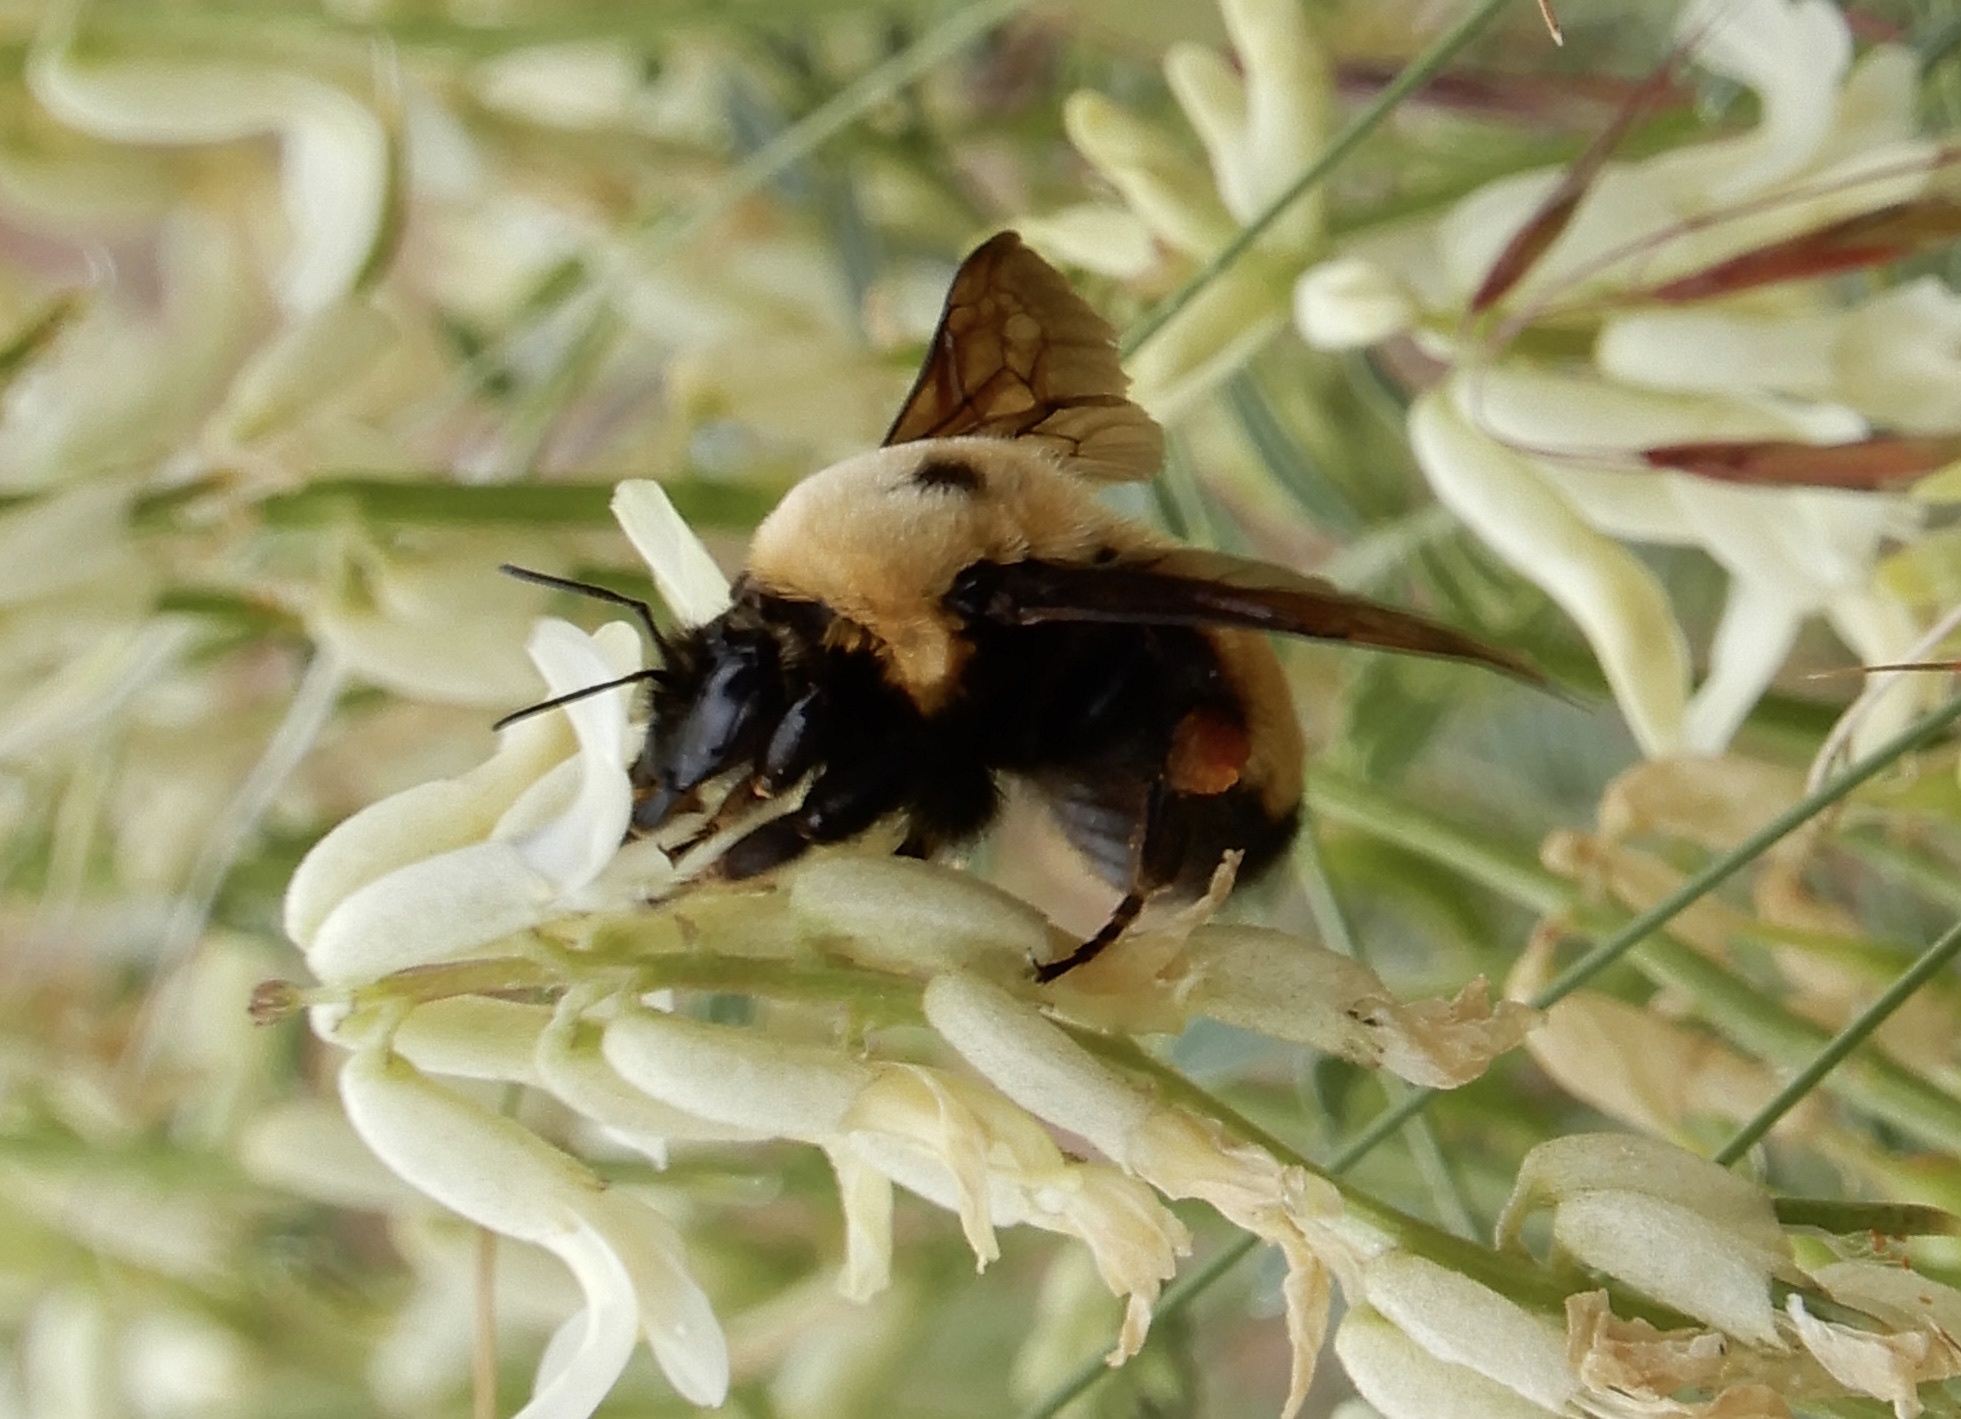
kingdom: Animalia
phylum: Arthropoda
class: Insecta
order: Hymenoptera
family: Apidae
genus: Bombus
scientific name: Bombus nevadensis
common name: Nevada bumble bee
